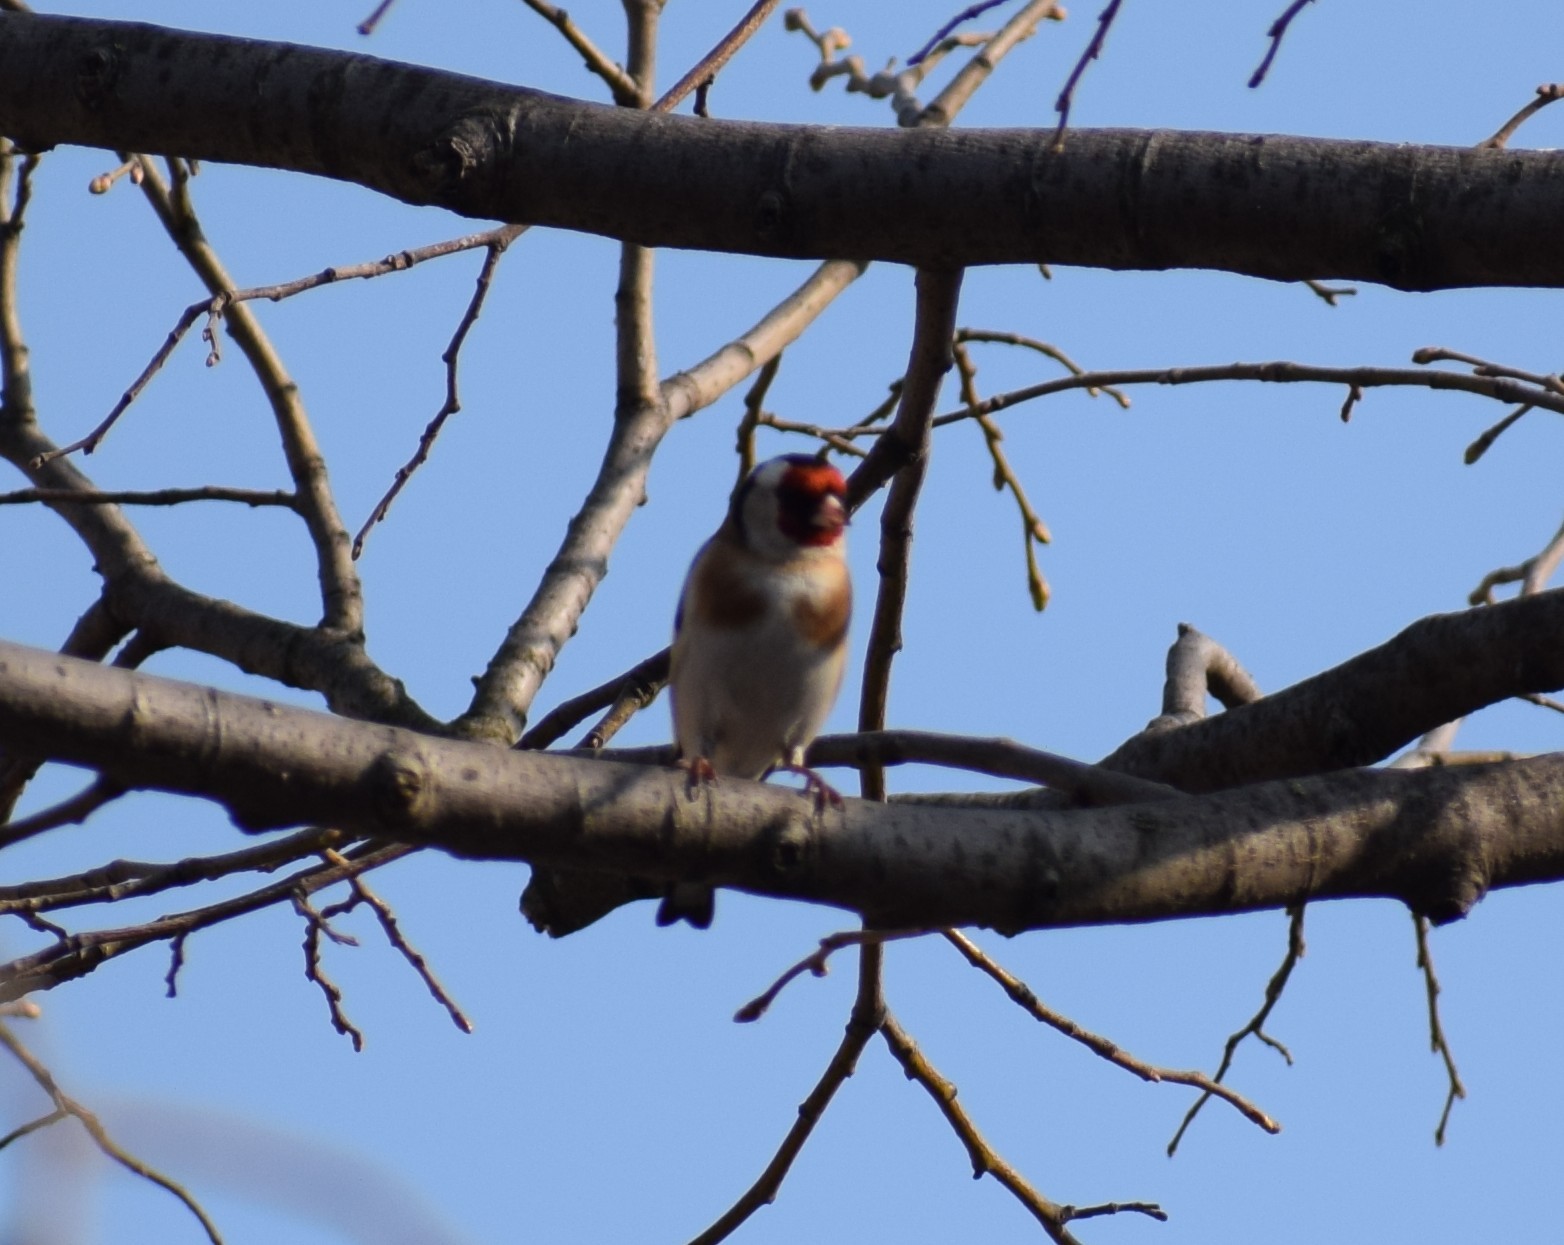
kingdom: Animalia
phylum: Chordata
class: Aves
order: Passeriformes
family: Fringillidae
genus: Carduelis
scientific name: Carduelis carduelis
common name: European goldfinch
